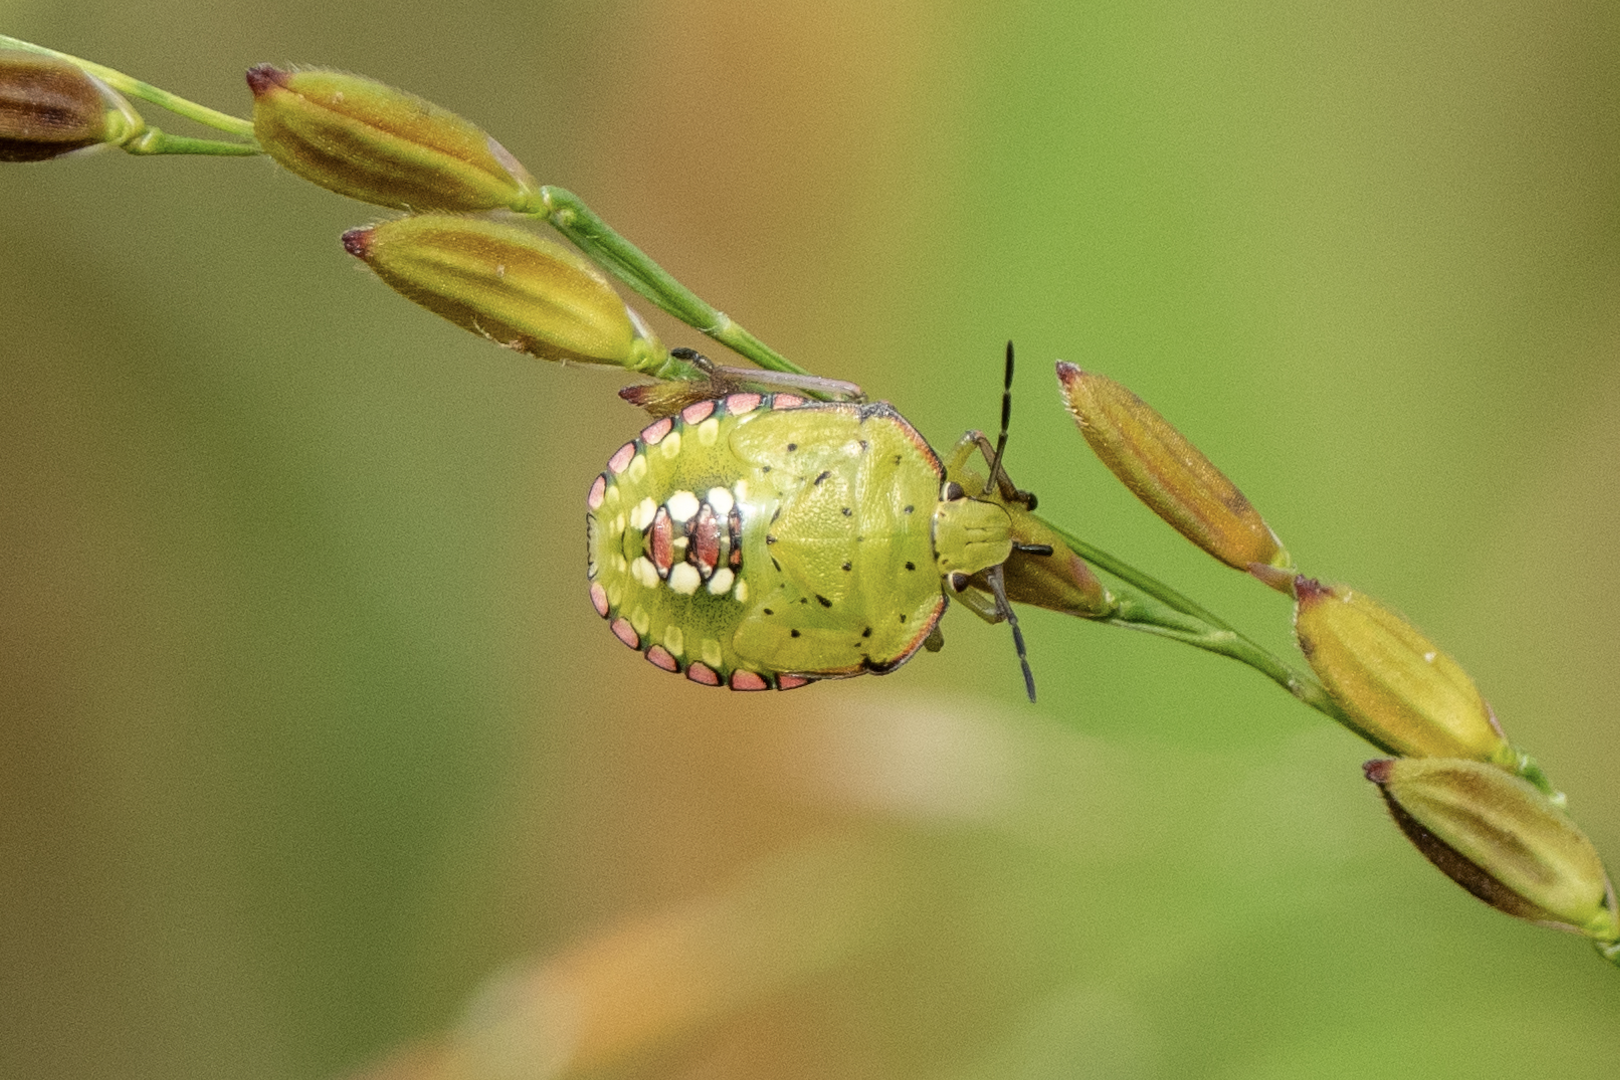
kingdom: Animalia
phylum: Arthropoda
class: Insecta
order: Hemiptera
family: Pentatomidae
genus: Nezara
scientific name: Nezara viridula
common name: Southern green stink bug
